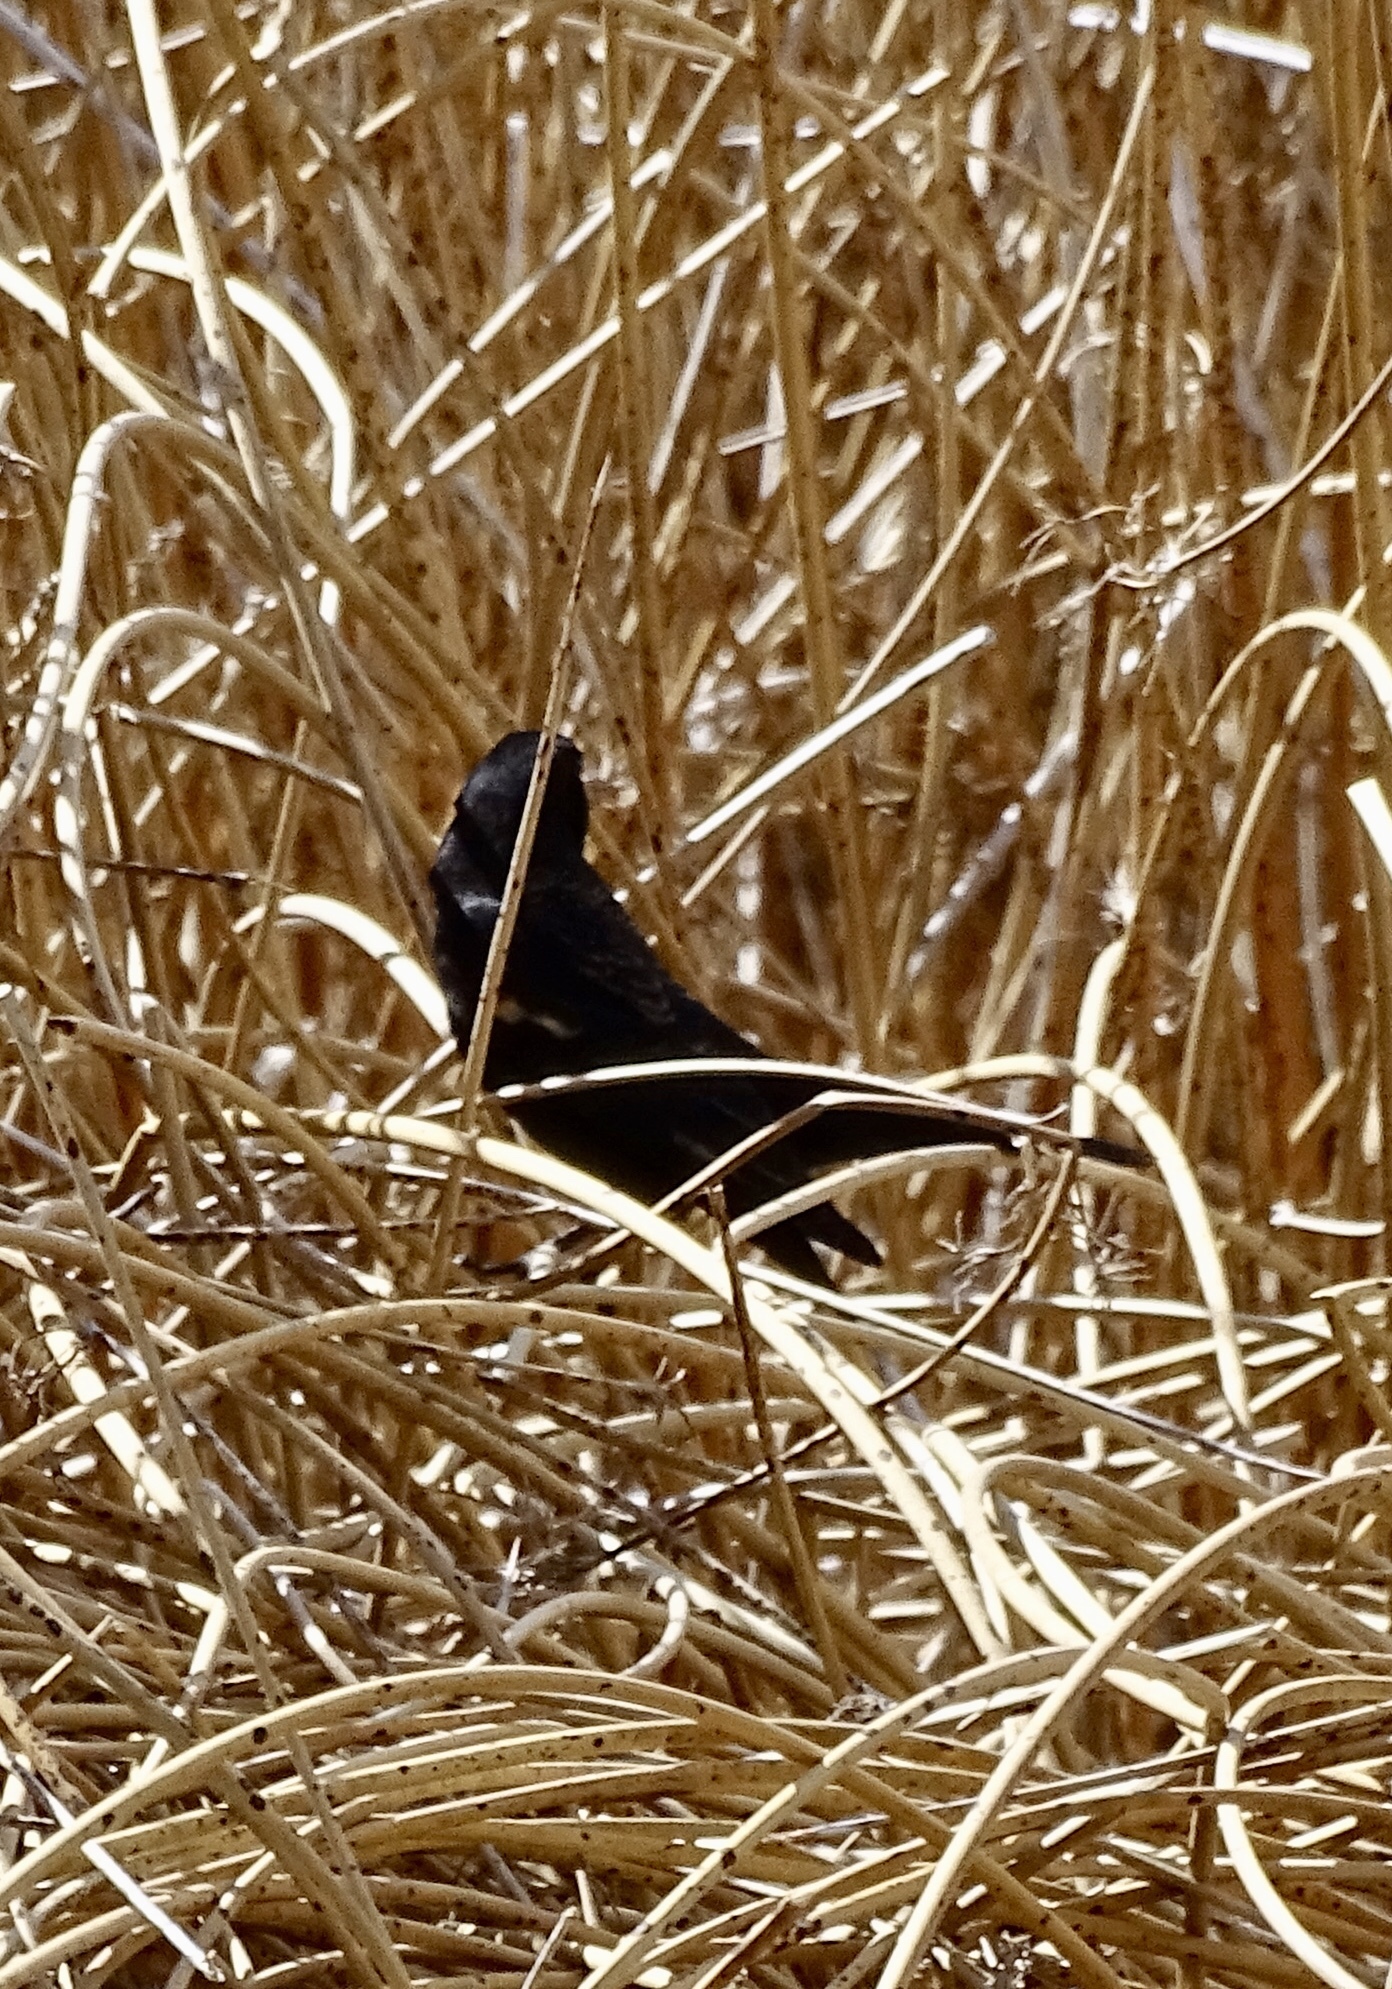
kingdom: Animalia
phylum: Chordata
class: Aves
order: Passeriformes
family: Icteridae
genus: Agelaius
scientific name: Agelaius phoeniceus
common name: Red-winged blackbird
